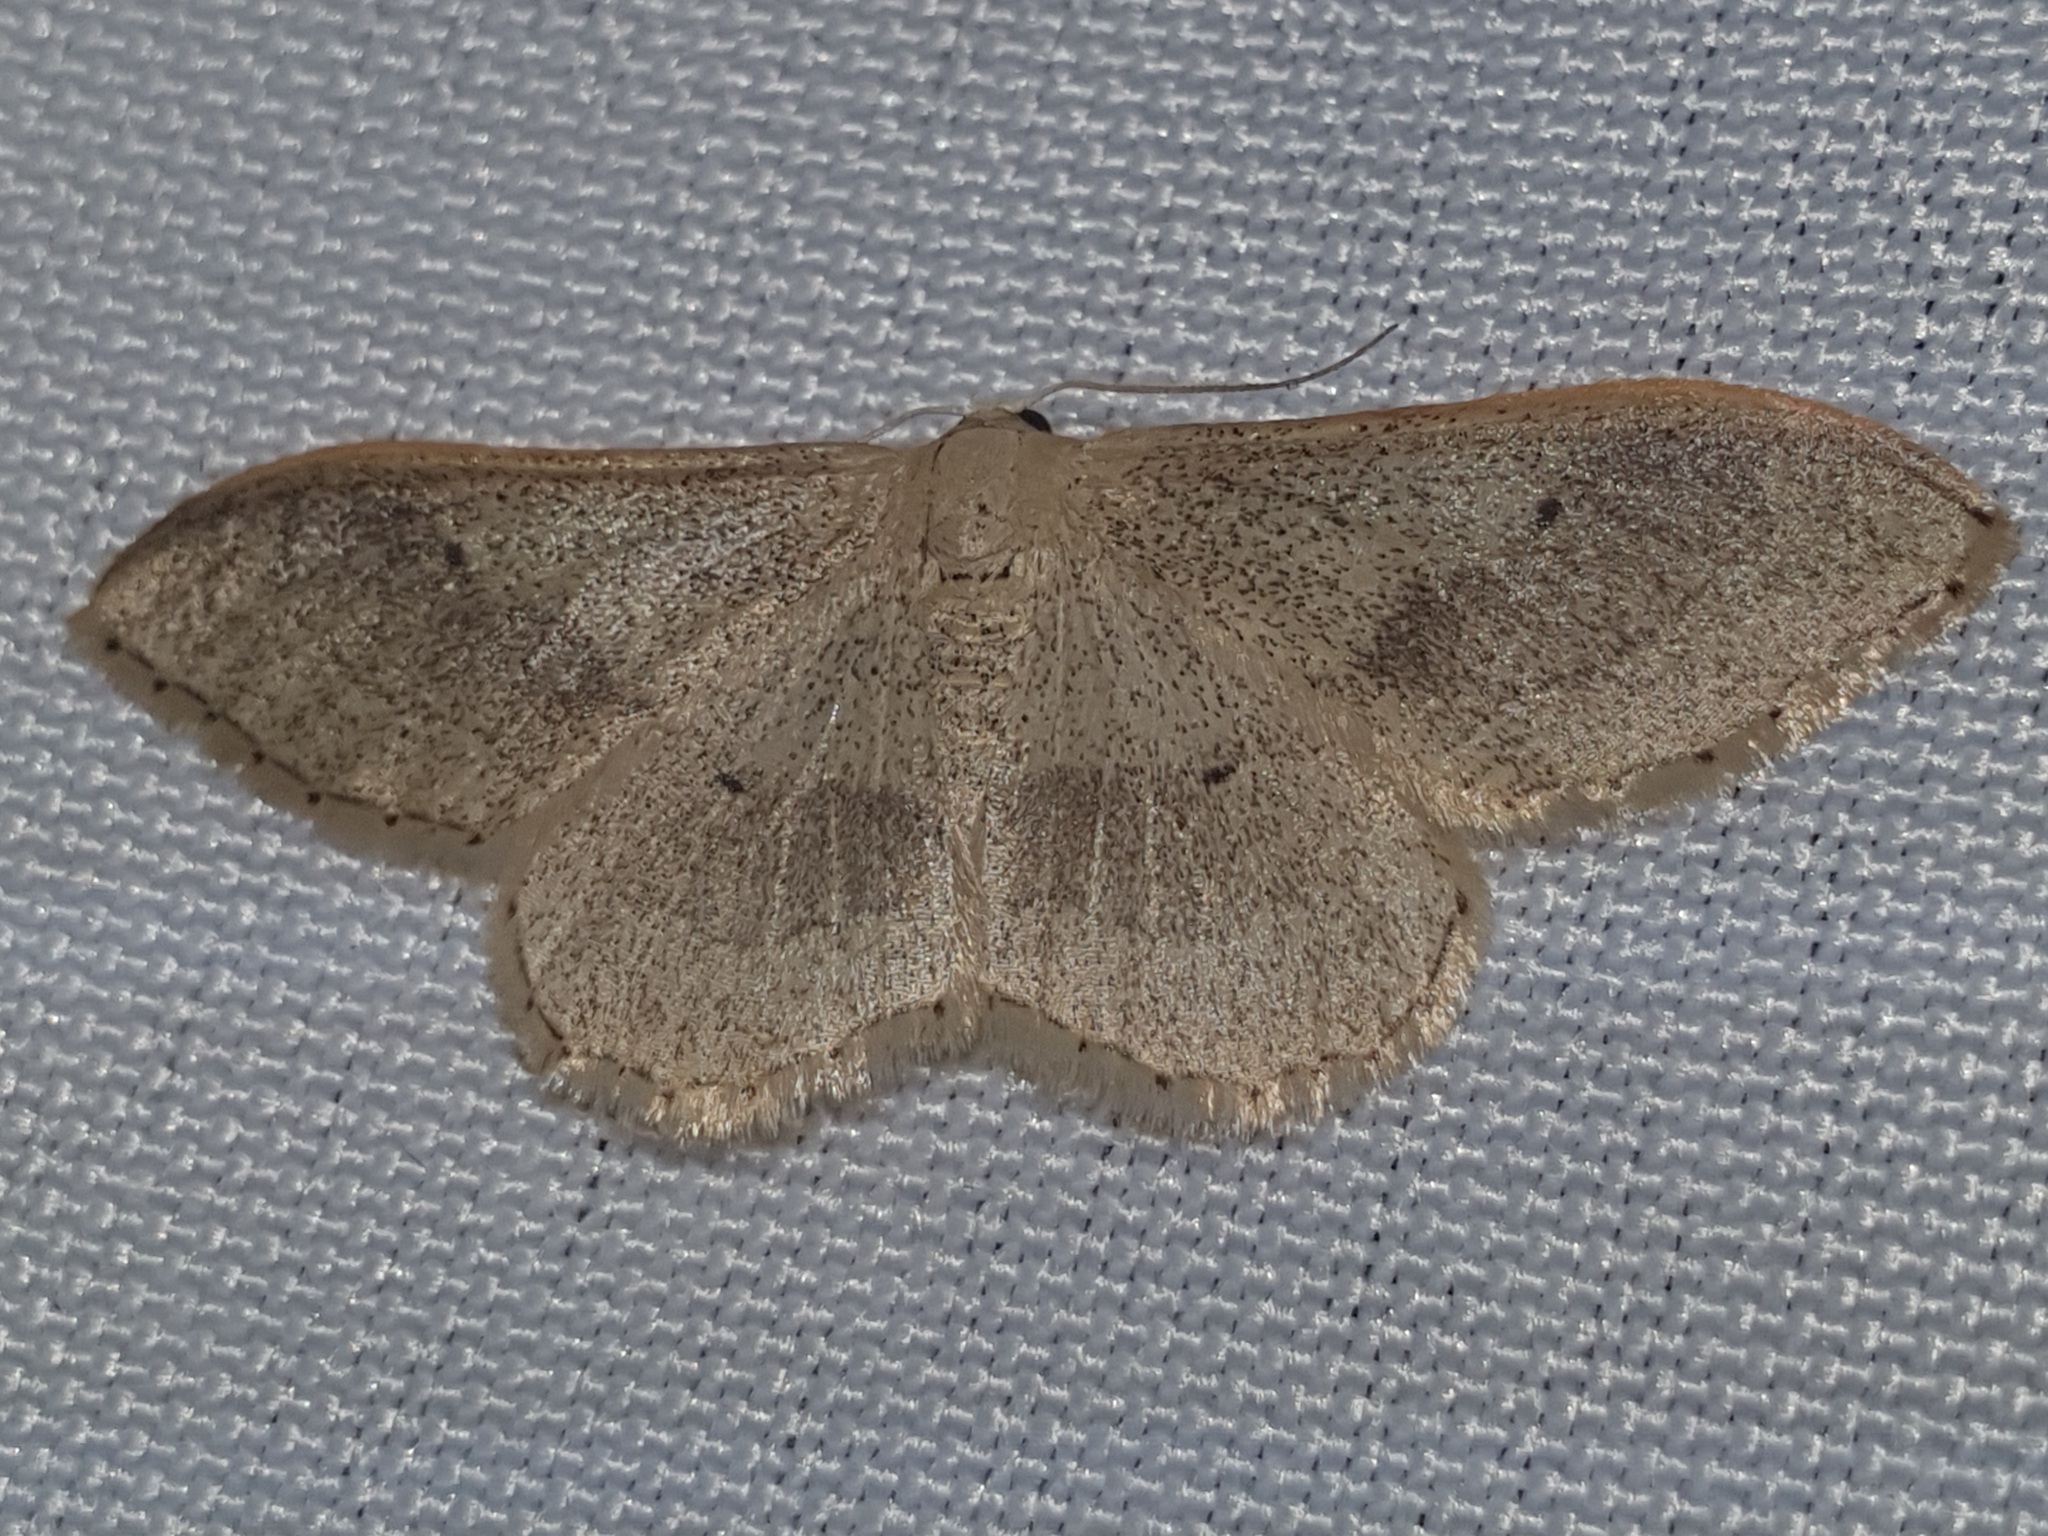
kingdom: Animalia
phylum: Arthropoda
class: Insecta
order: Lepidoptera
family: Geometridae
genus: Idaea
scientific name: Idaea aversata
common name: Riband wave
